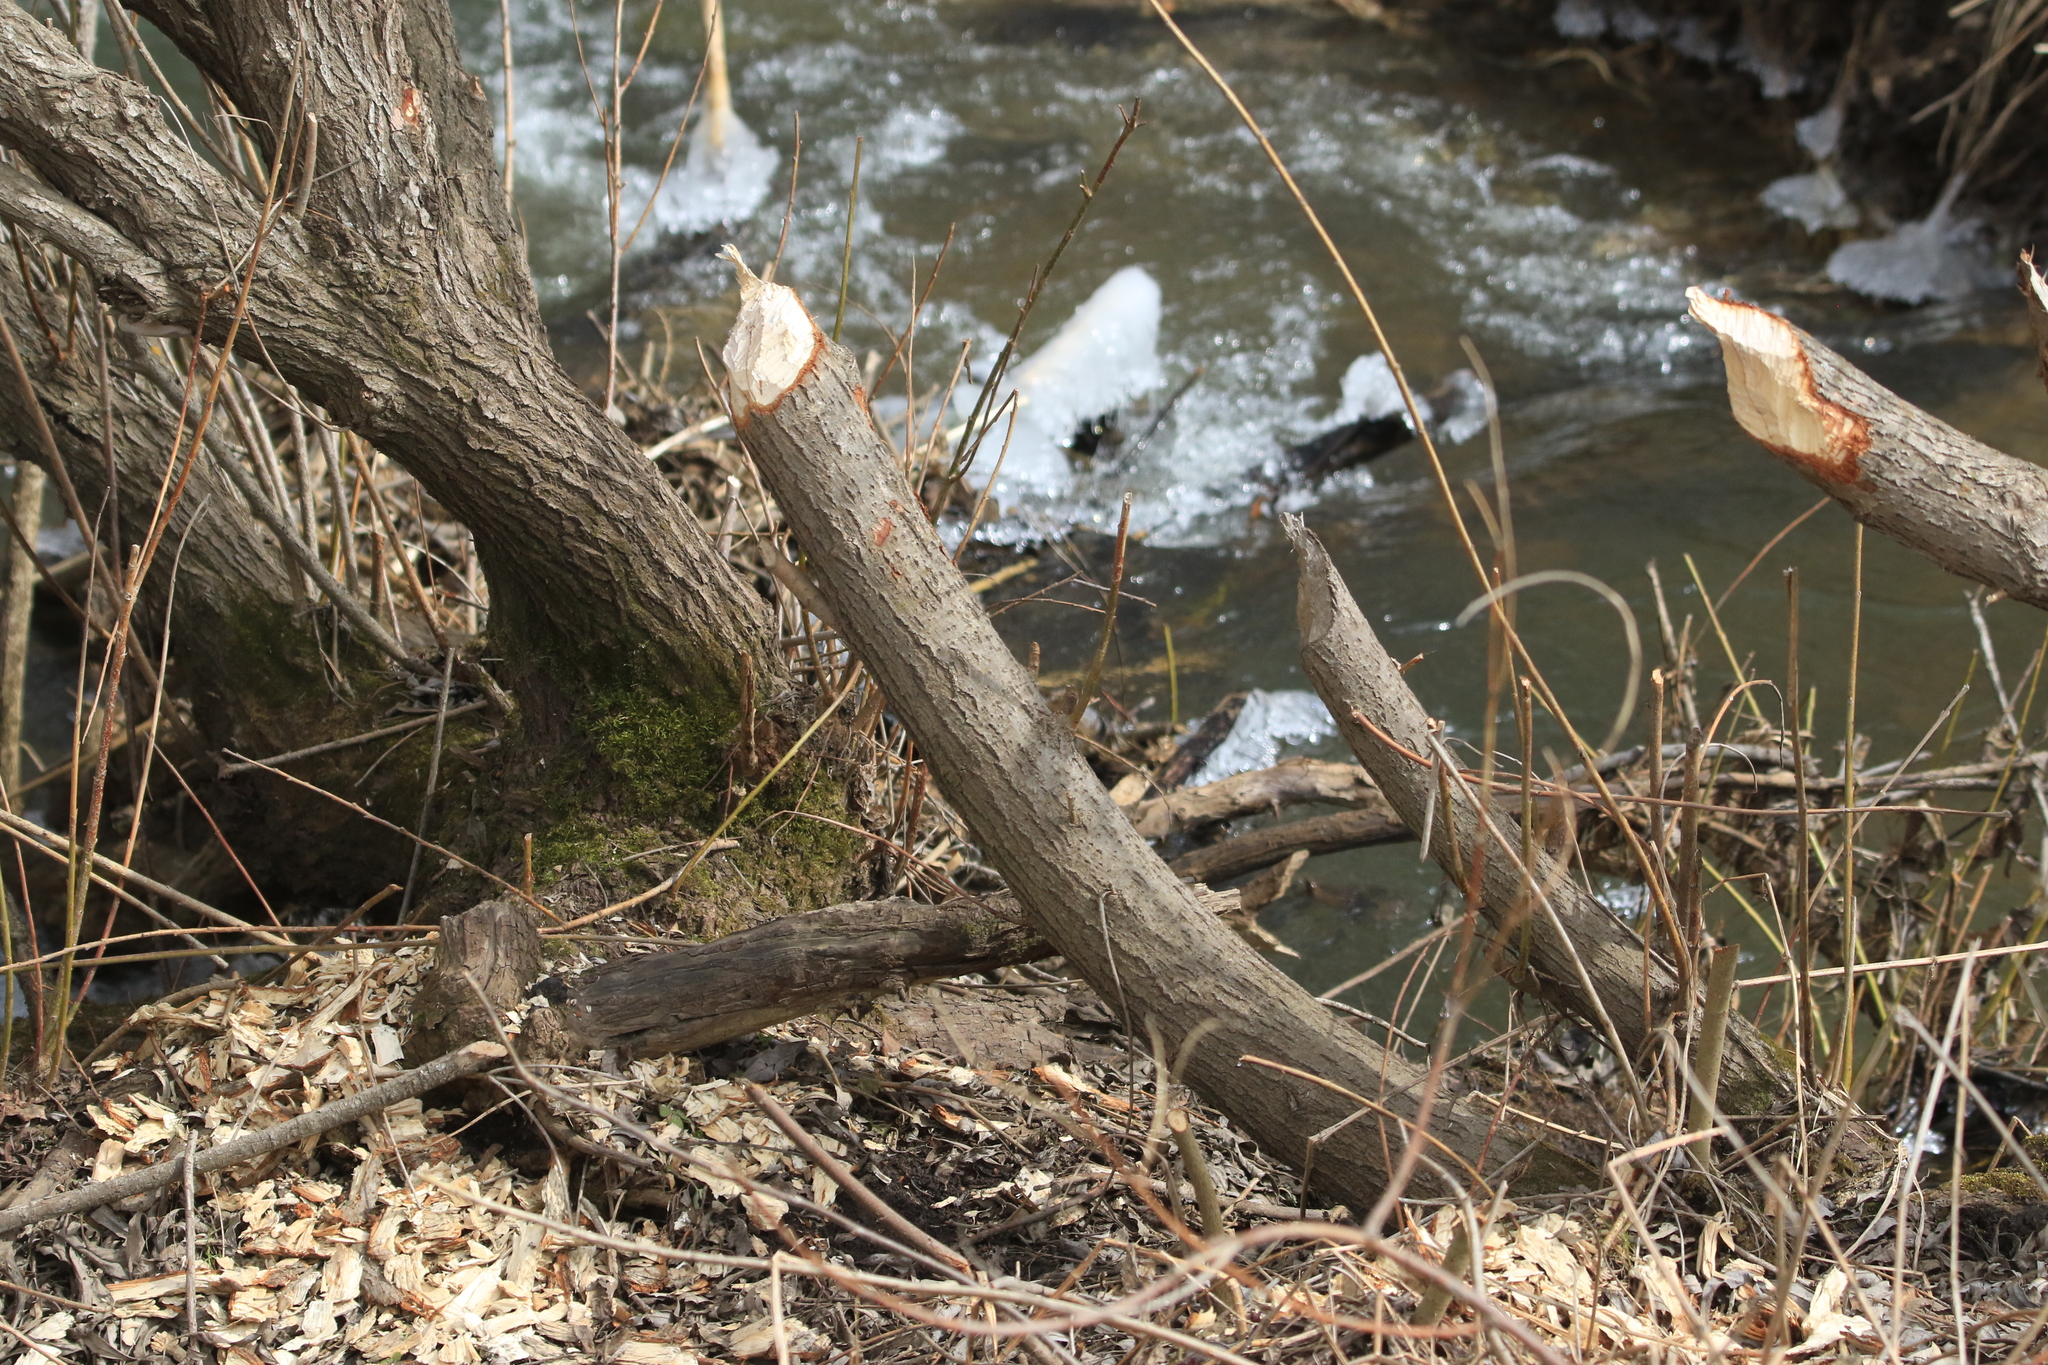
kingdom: Animalia
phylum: Chordata
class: Mammalia
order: Rodentia
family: Castoridae
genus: Castor
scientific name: Castor fiber
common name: Eurasian beaver
